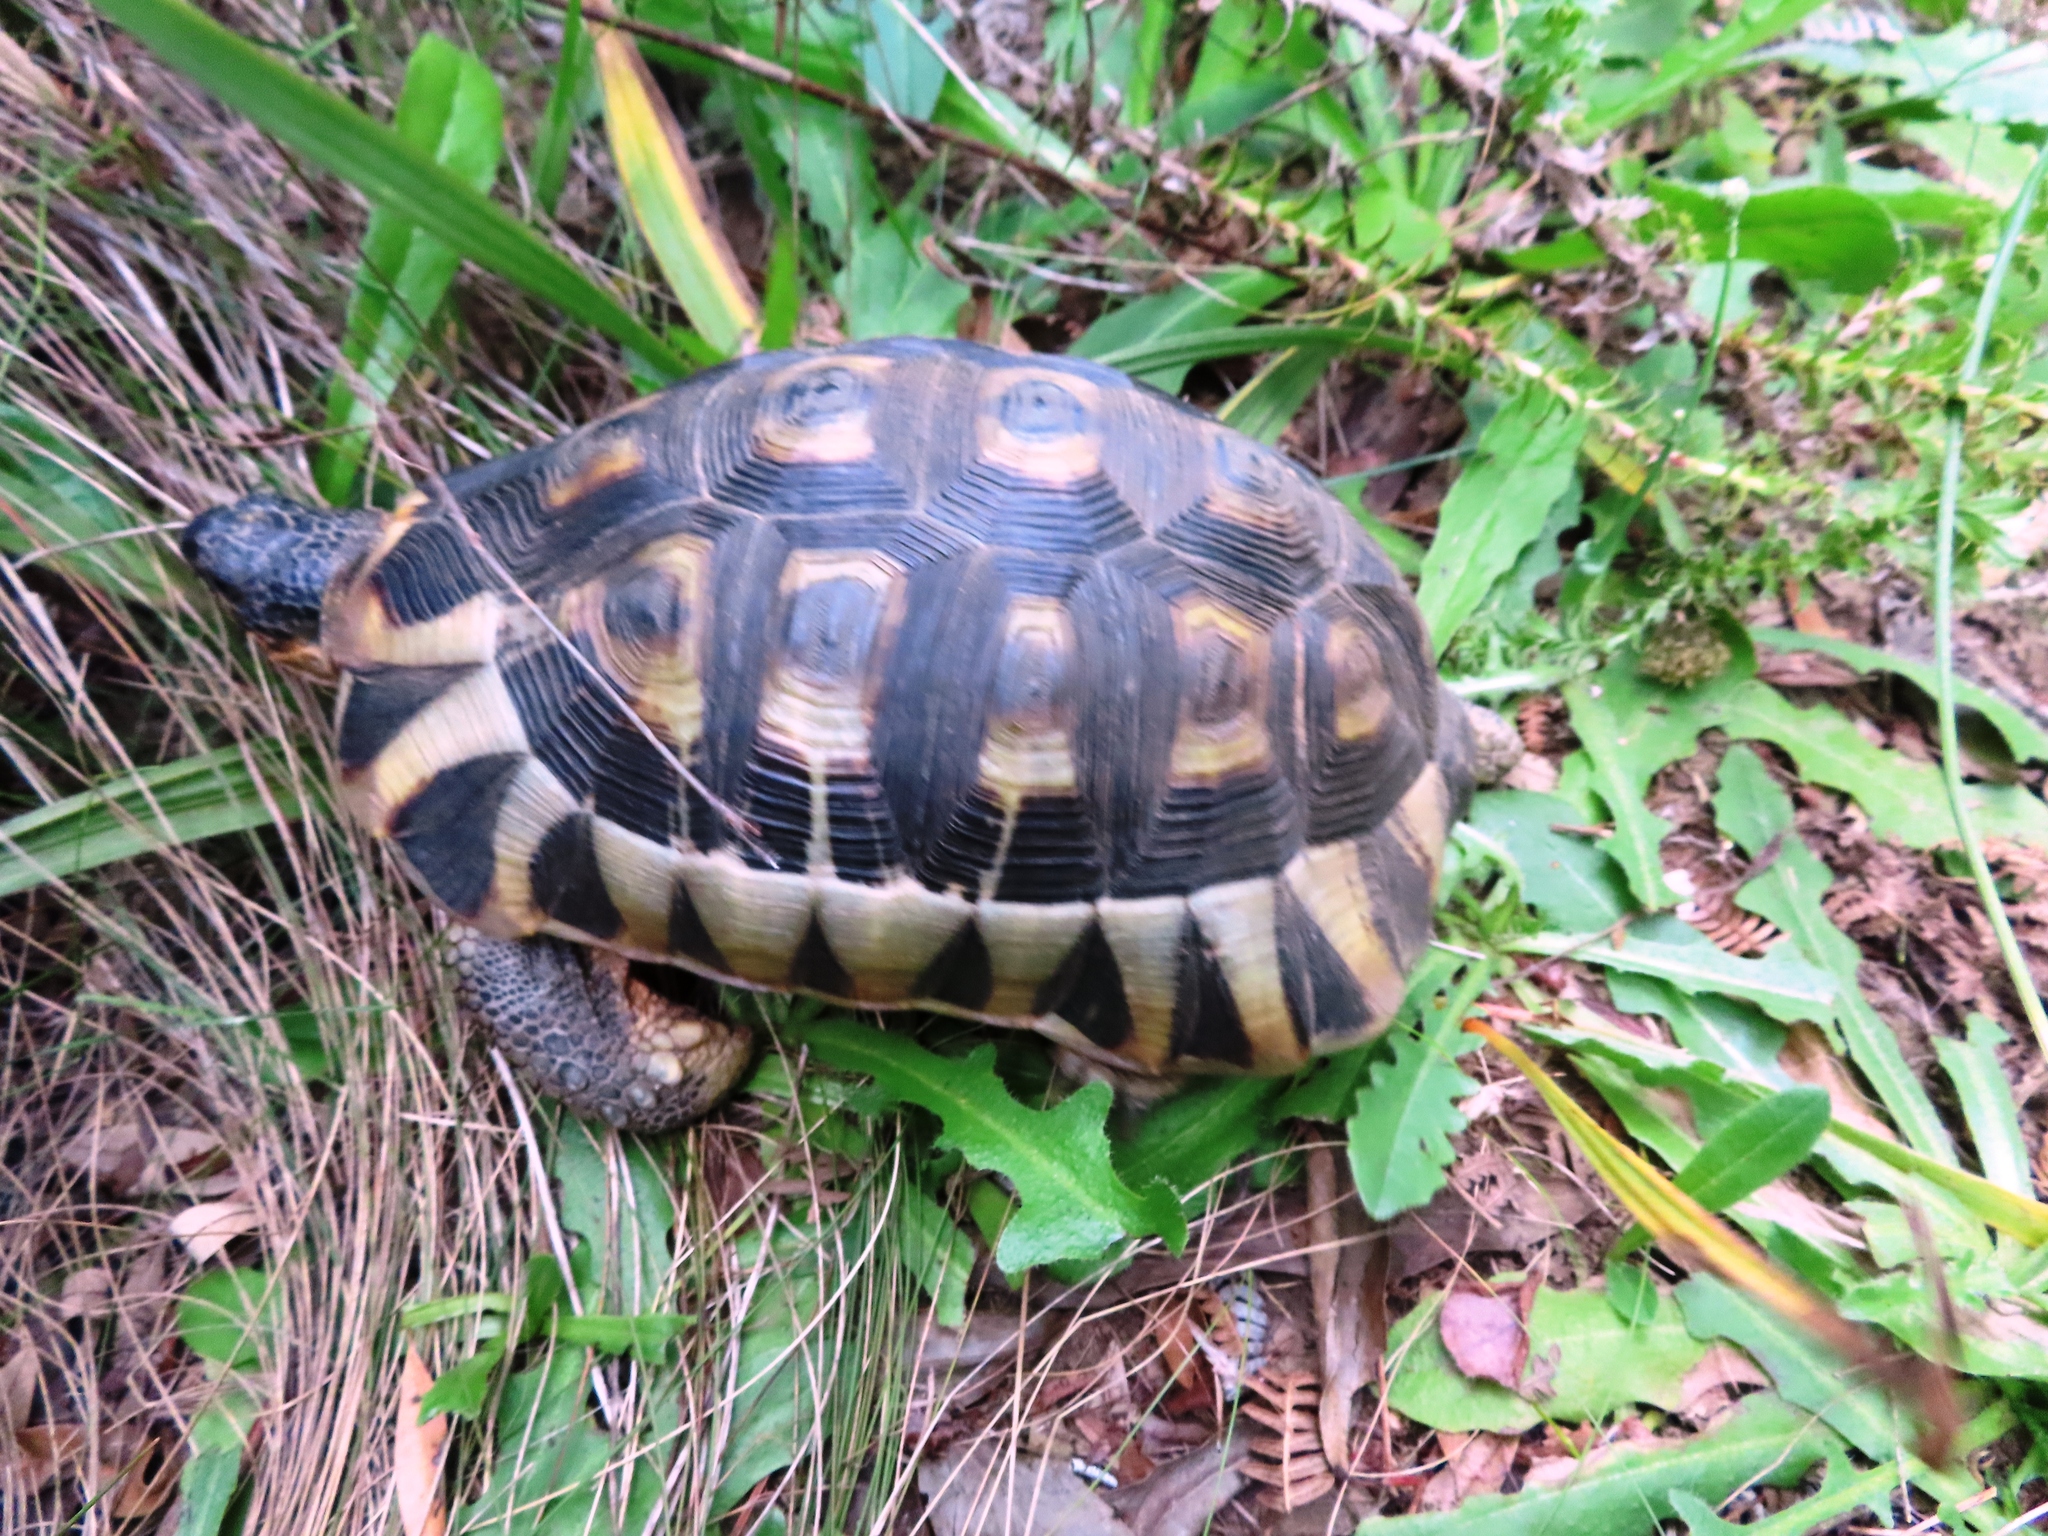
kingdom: Animalia
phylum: Chordata
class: Testudines
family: Testudinidae
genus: Chersina
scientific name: Chersina angulata
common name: South african bowsprit tortoise
